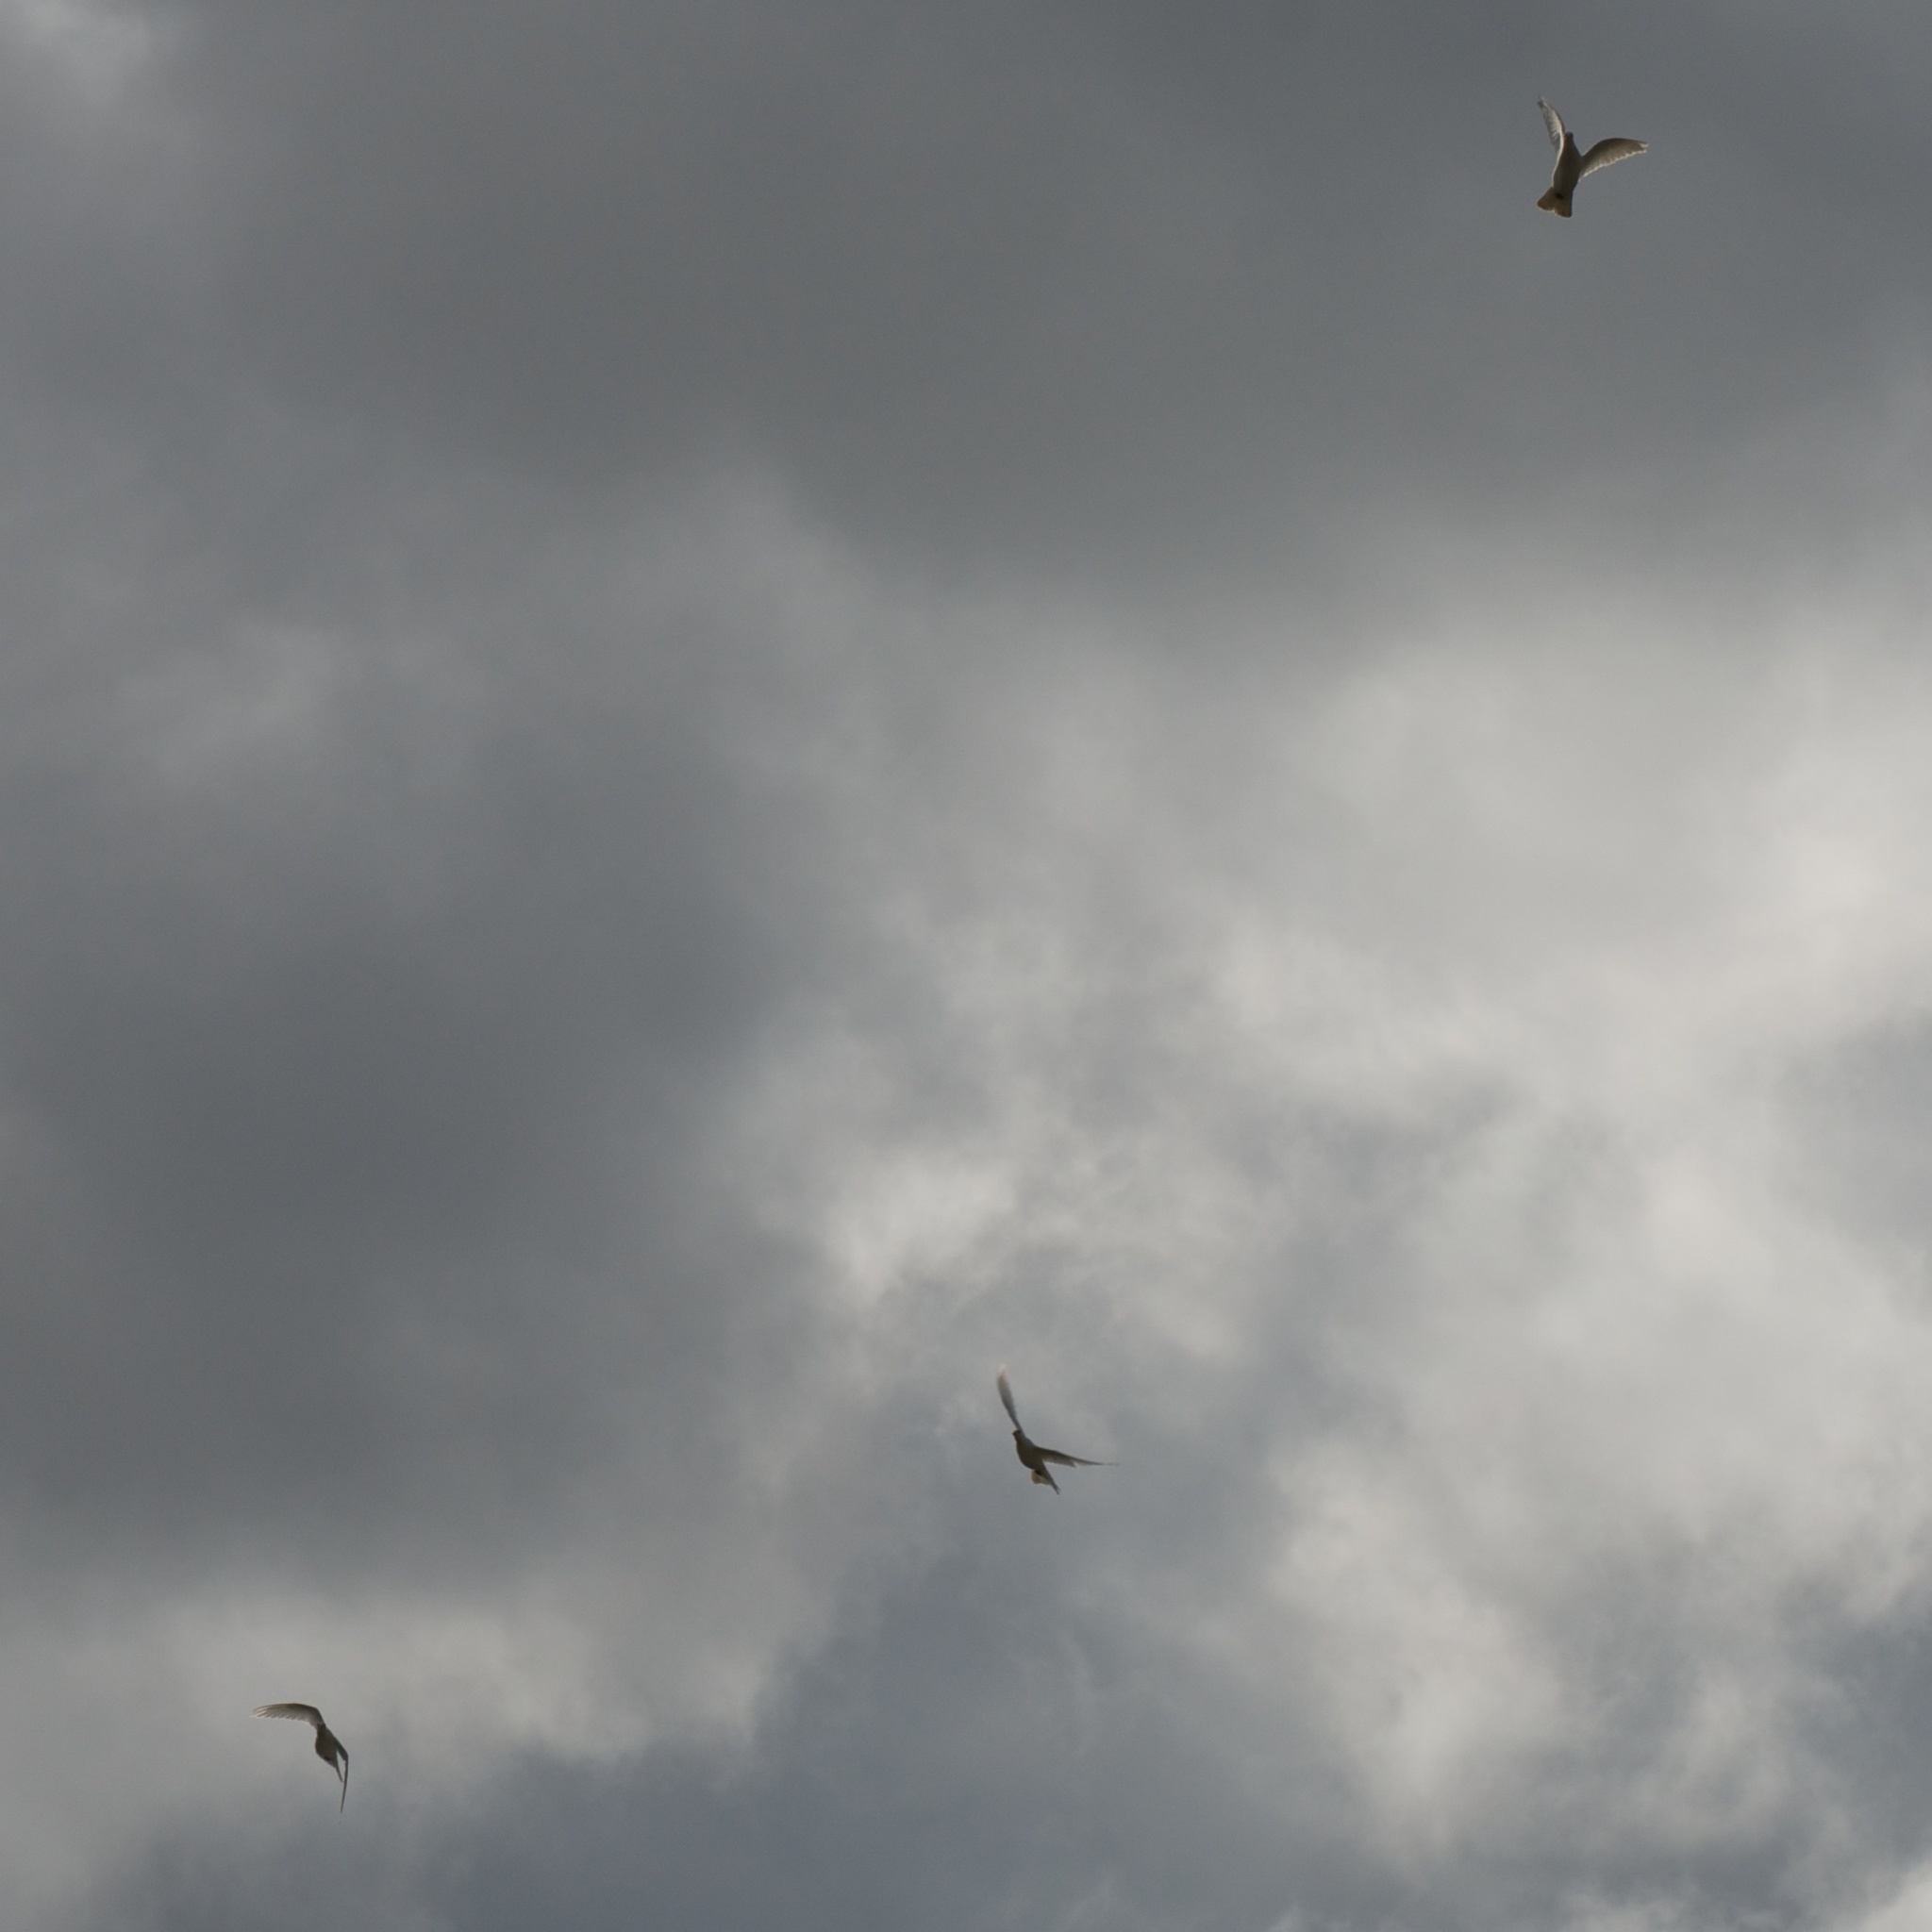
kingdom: Animalia
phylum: Chordata
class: Aves
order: Columbiformes
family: Columbidae
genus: Columba
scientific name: Columba livia
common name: Rock pigeon
